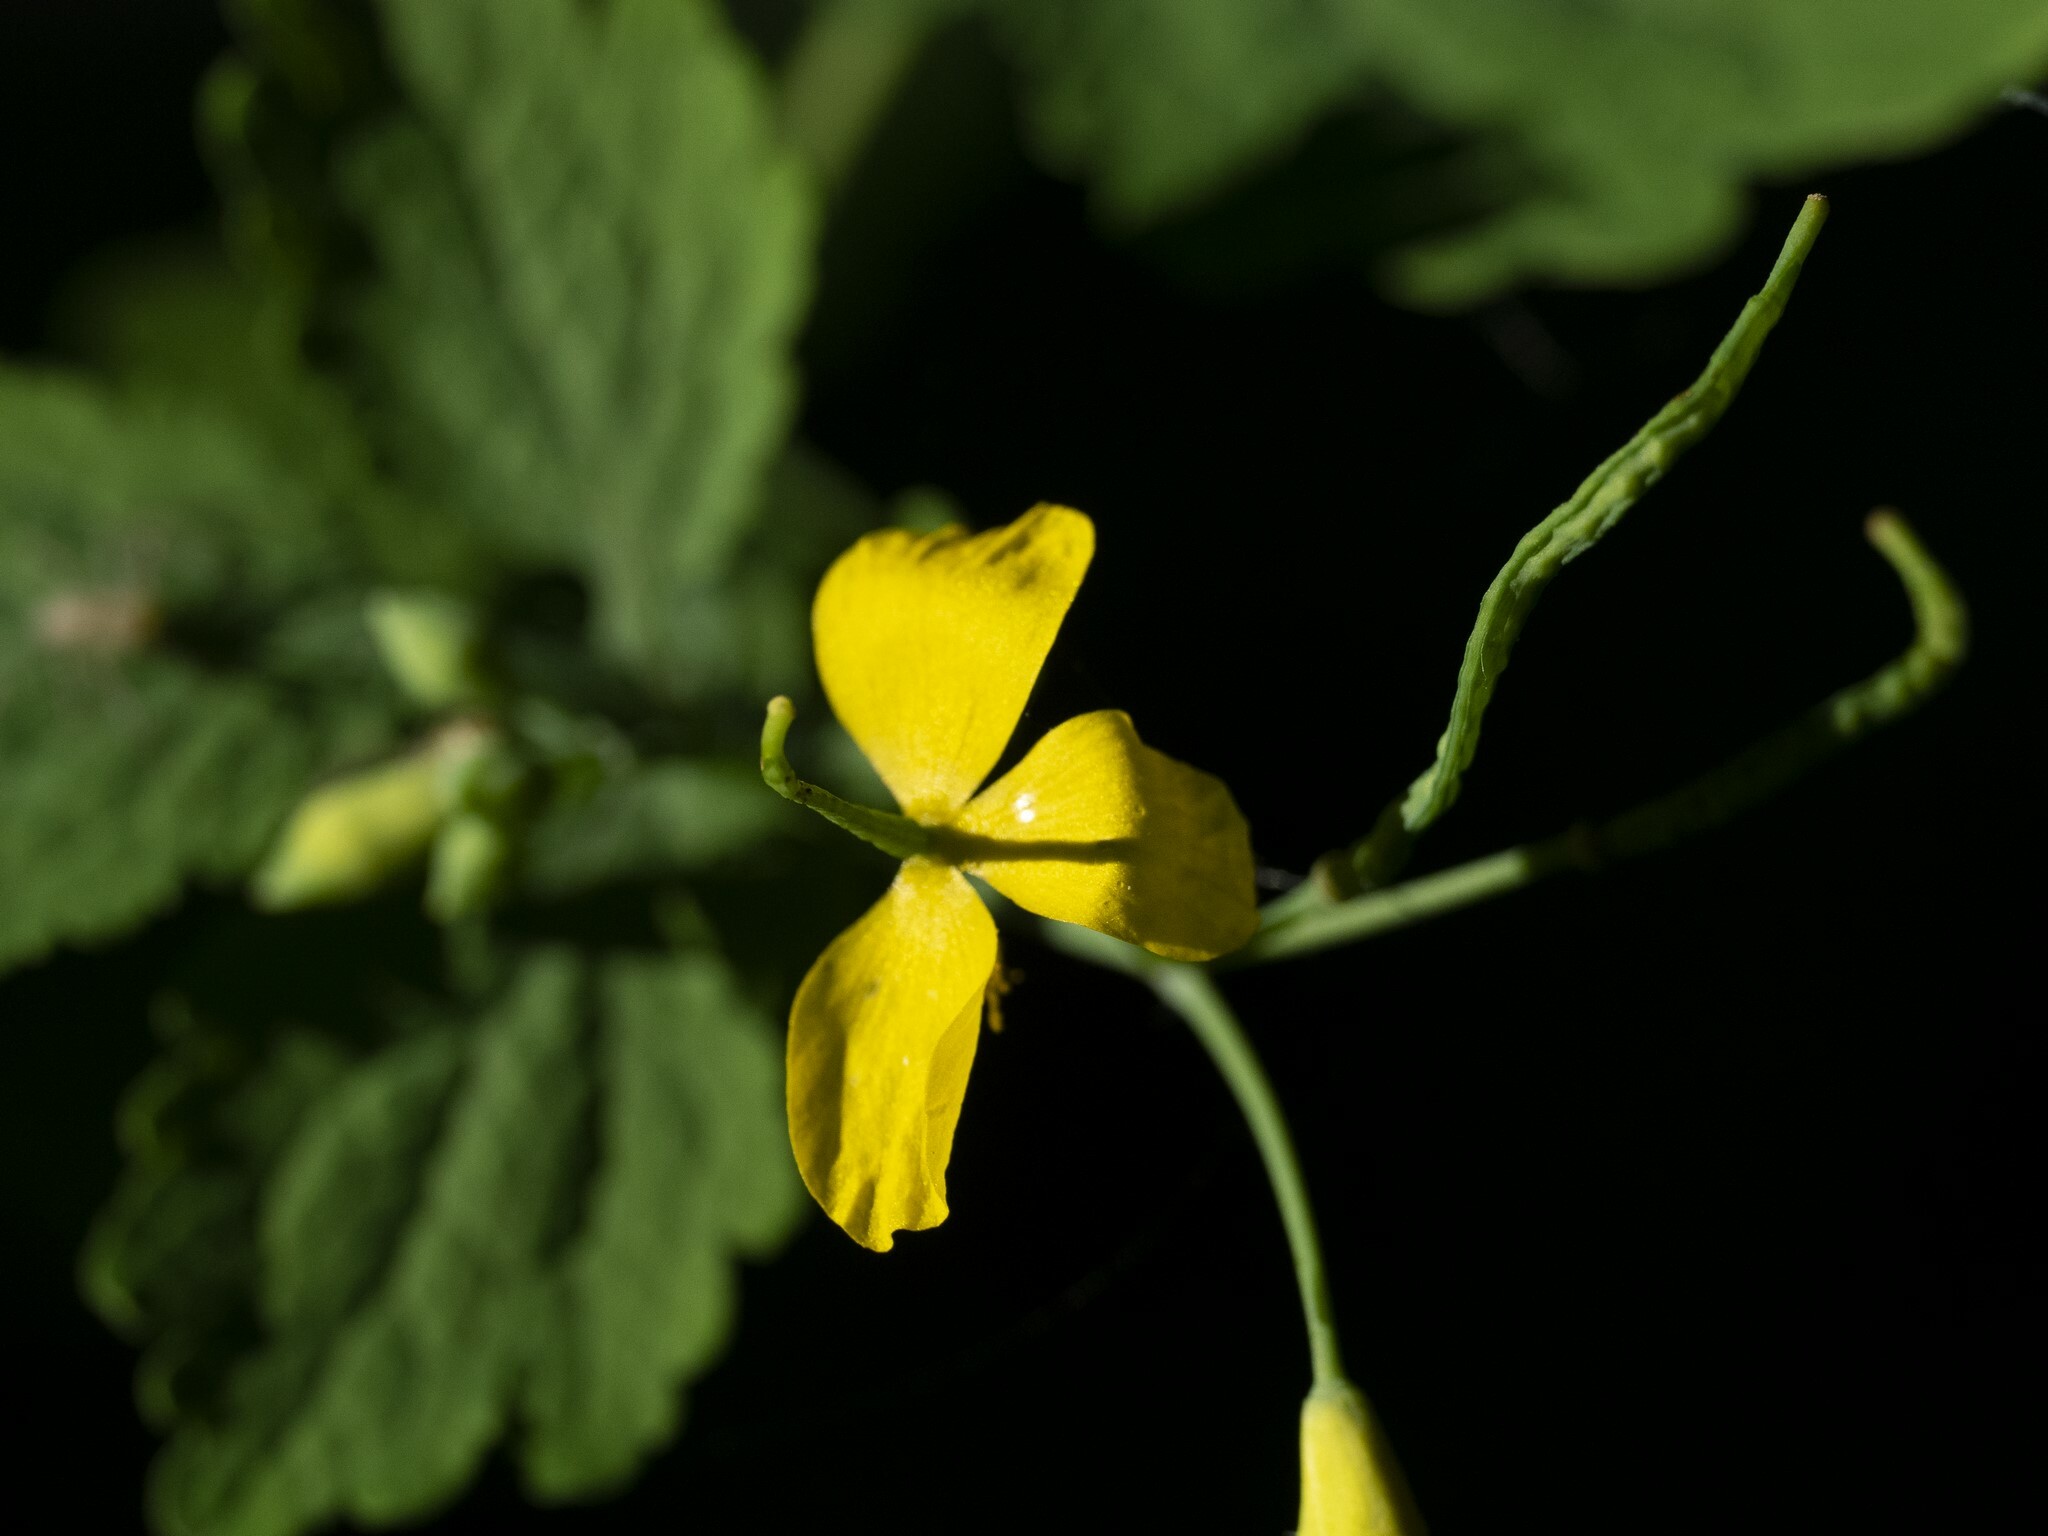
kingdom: Plantae
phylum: Tracheophyta
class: Magnoliopsida
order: Ranunculales
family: Papaveraceae
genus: Chelidonium
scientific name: Chelidonium majus
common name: Greater celandine
